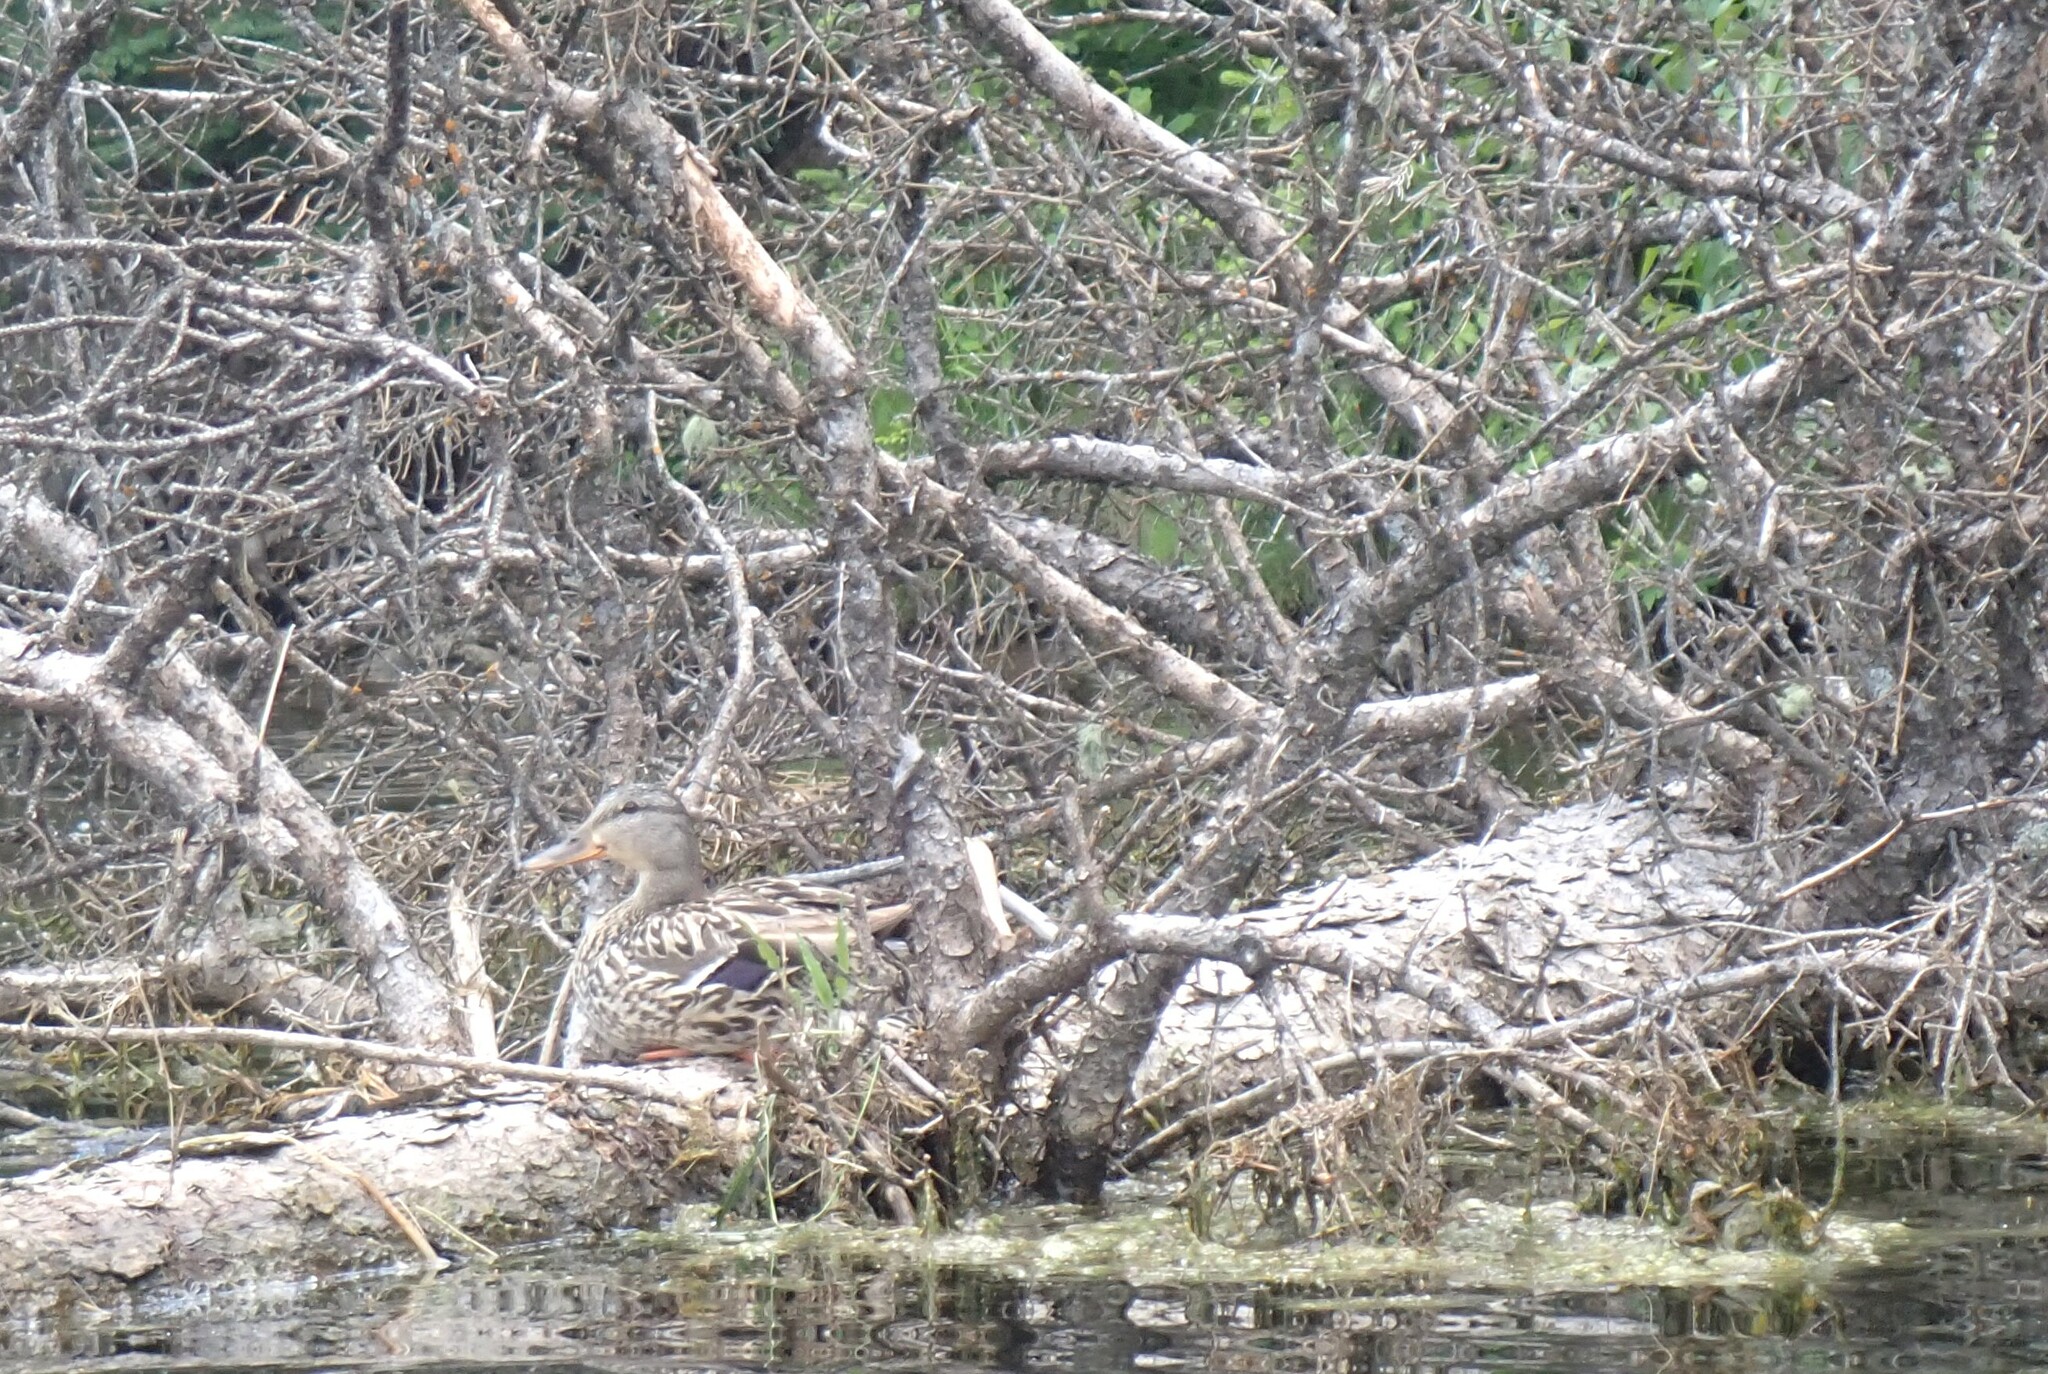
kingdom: Animalia
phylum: Chordata
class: Aves
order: Anseriformes
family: Anatidae
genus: Anas
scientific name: Anas platyrhynchos
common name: Mallard
